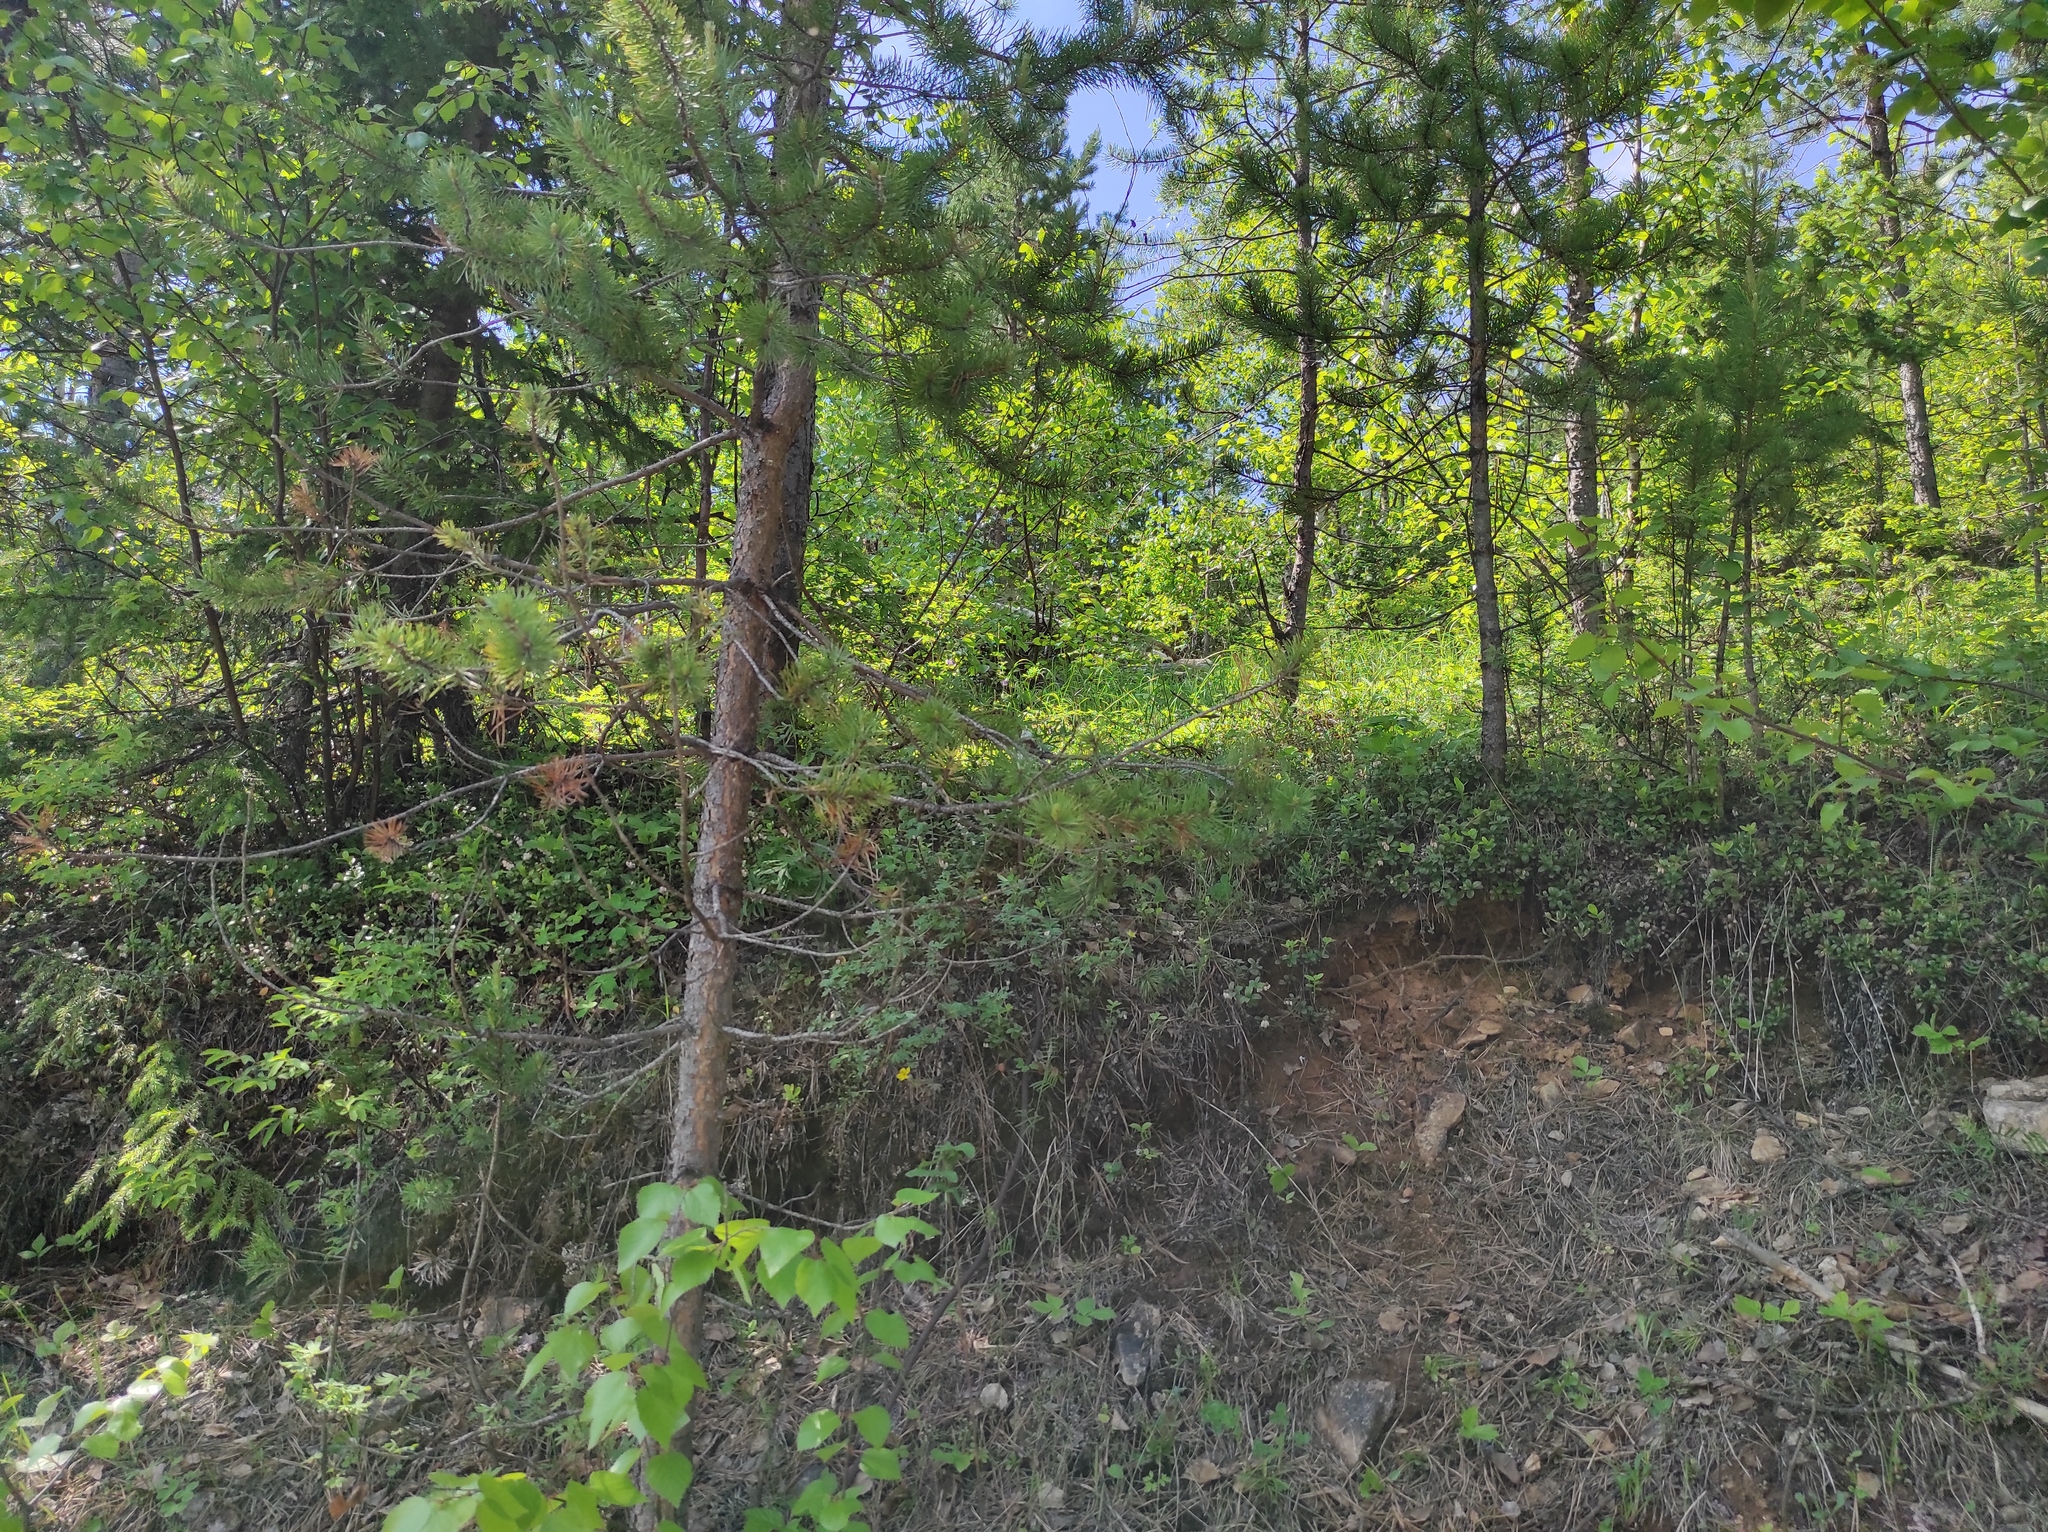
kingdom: Plantae
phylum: Tracheophyta
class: Pinopsida
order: Pinales
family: Pinaceae
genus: Pinus
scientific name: Pinus sylvestris
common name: Scots pine
